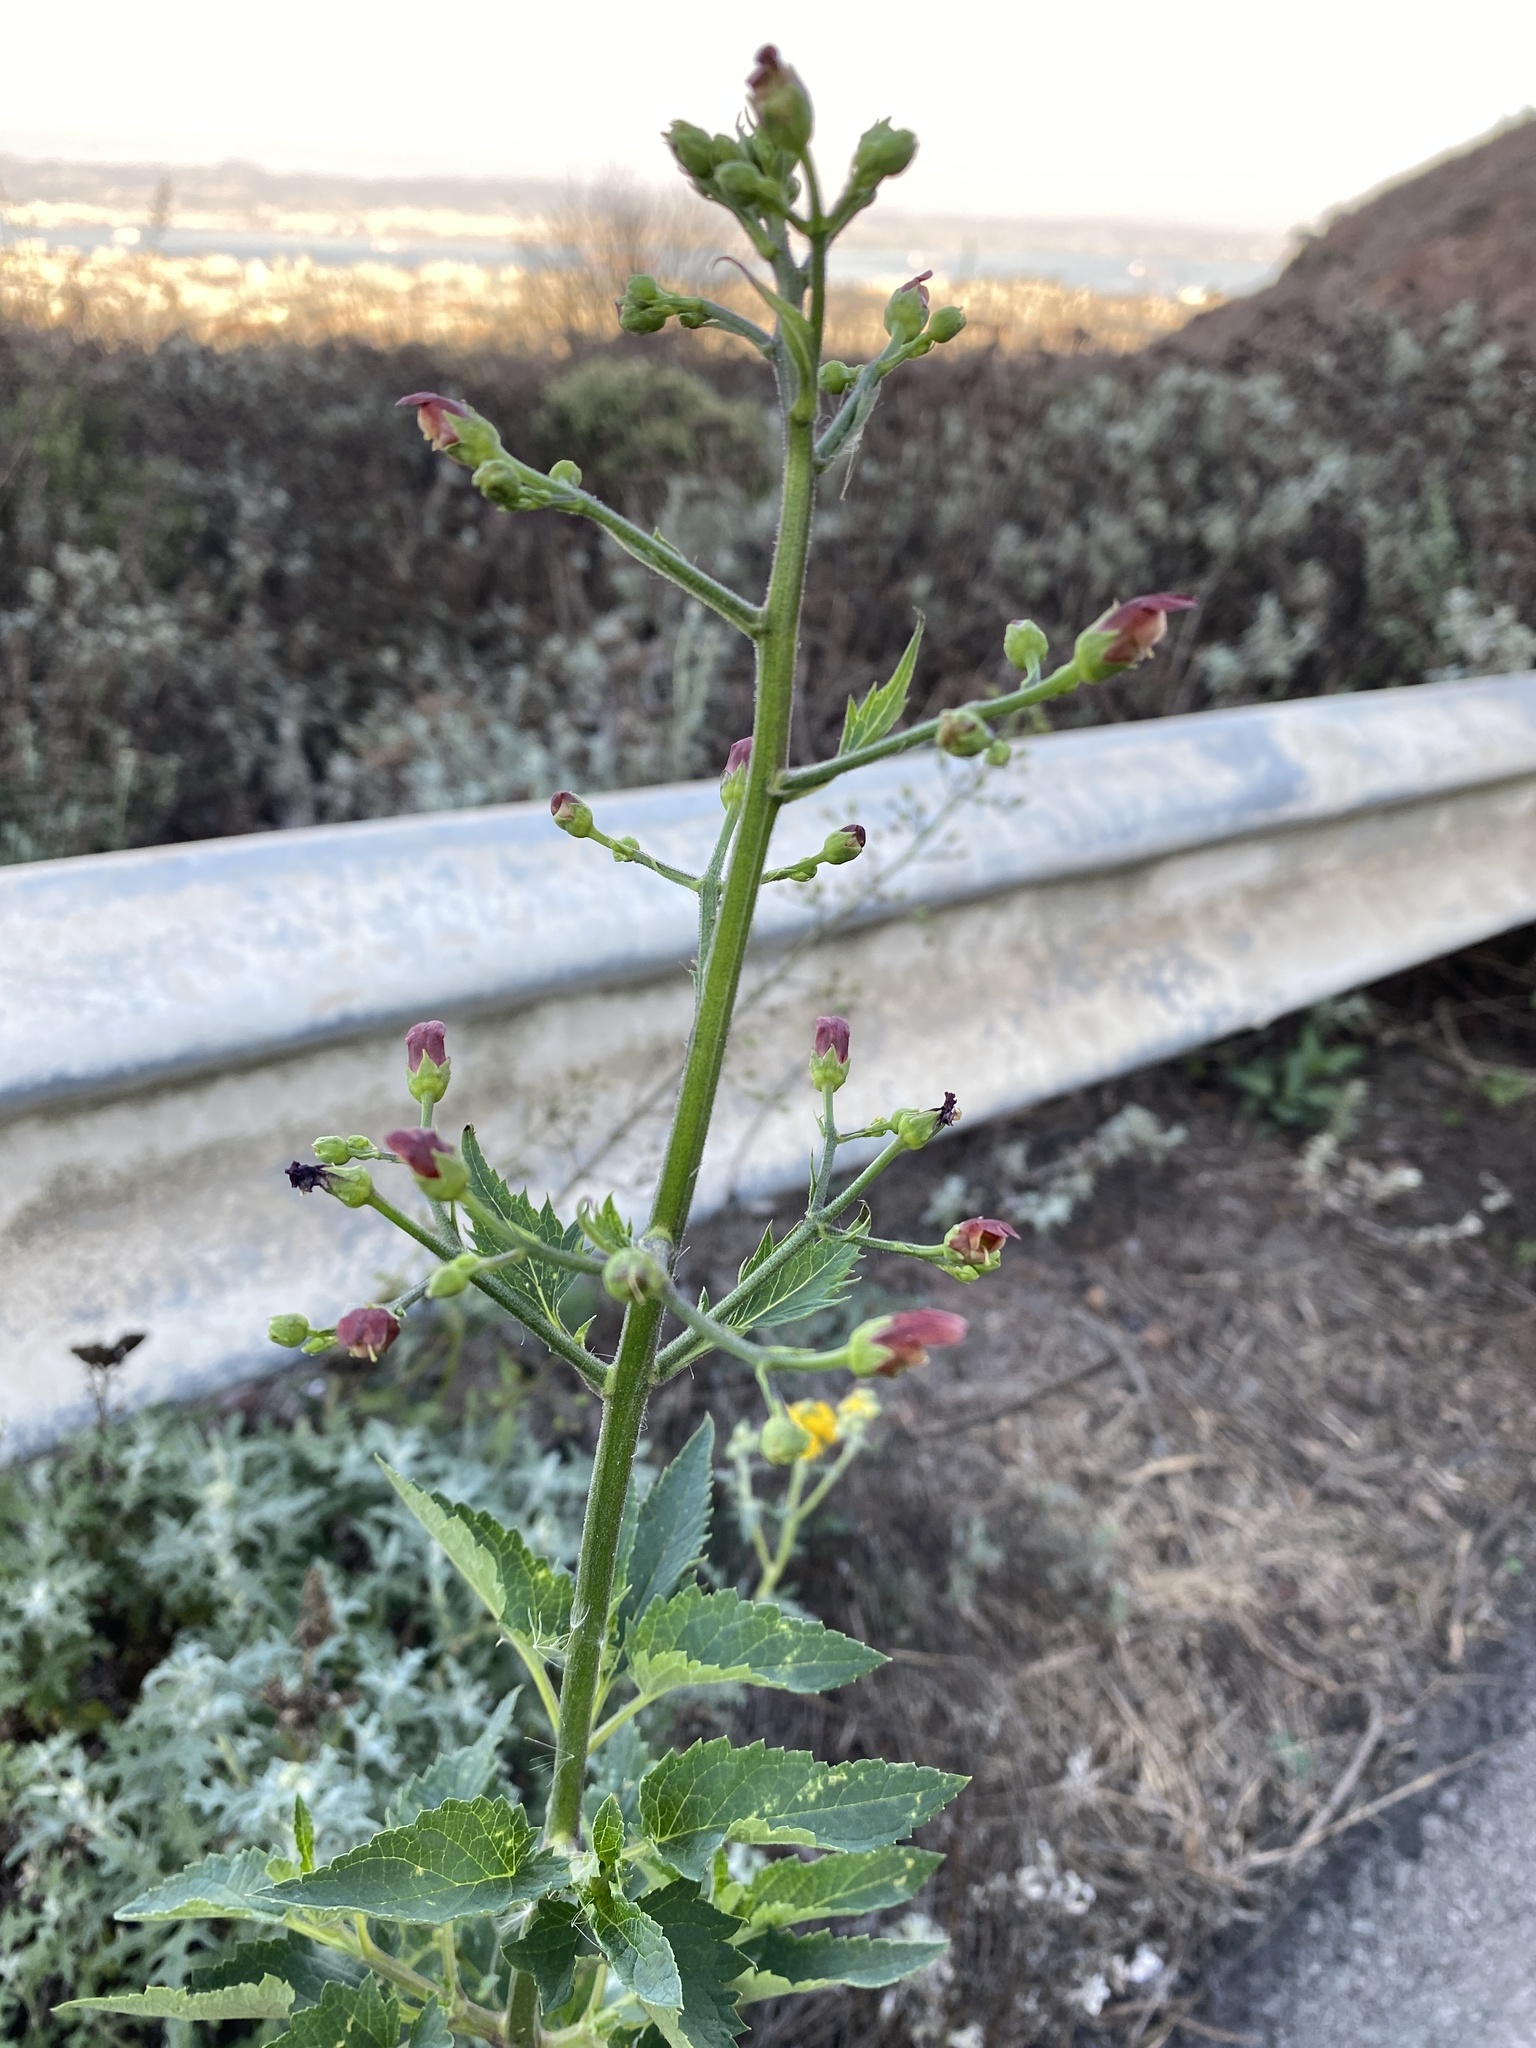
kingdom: Plantae
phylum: Tracheophyta
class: Magnoliopsida
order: Lamiales
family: Scrophulariaceae
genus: Scrophularia
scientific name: Scrophularia californica
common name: California figwort
